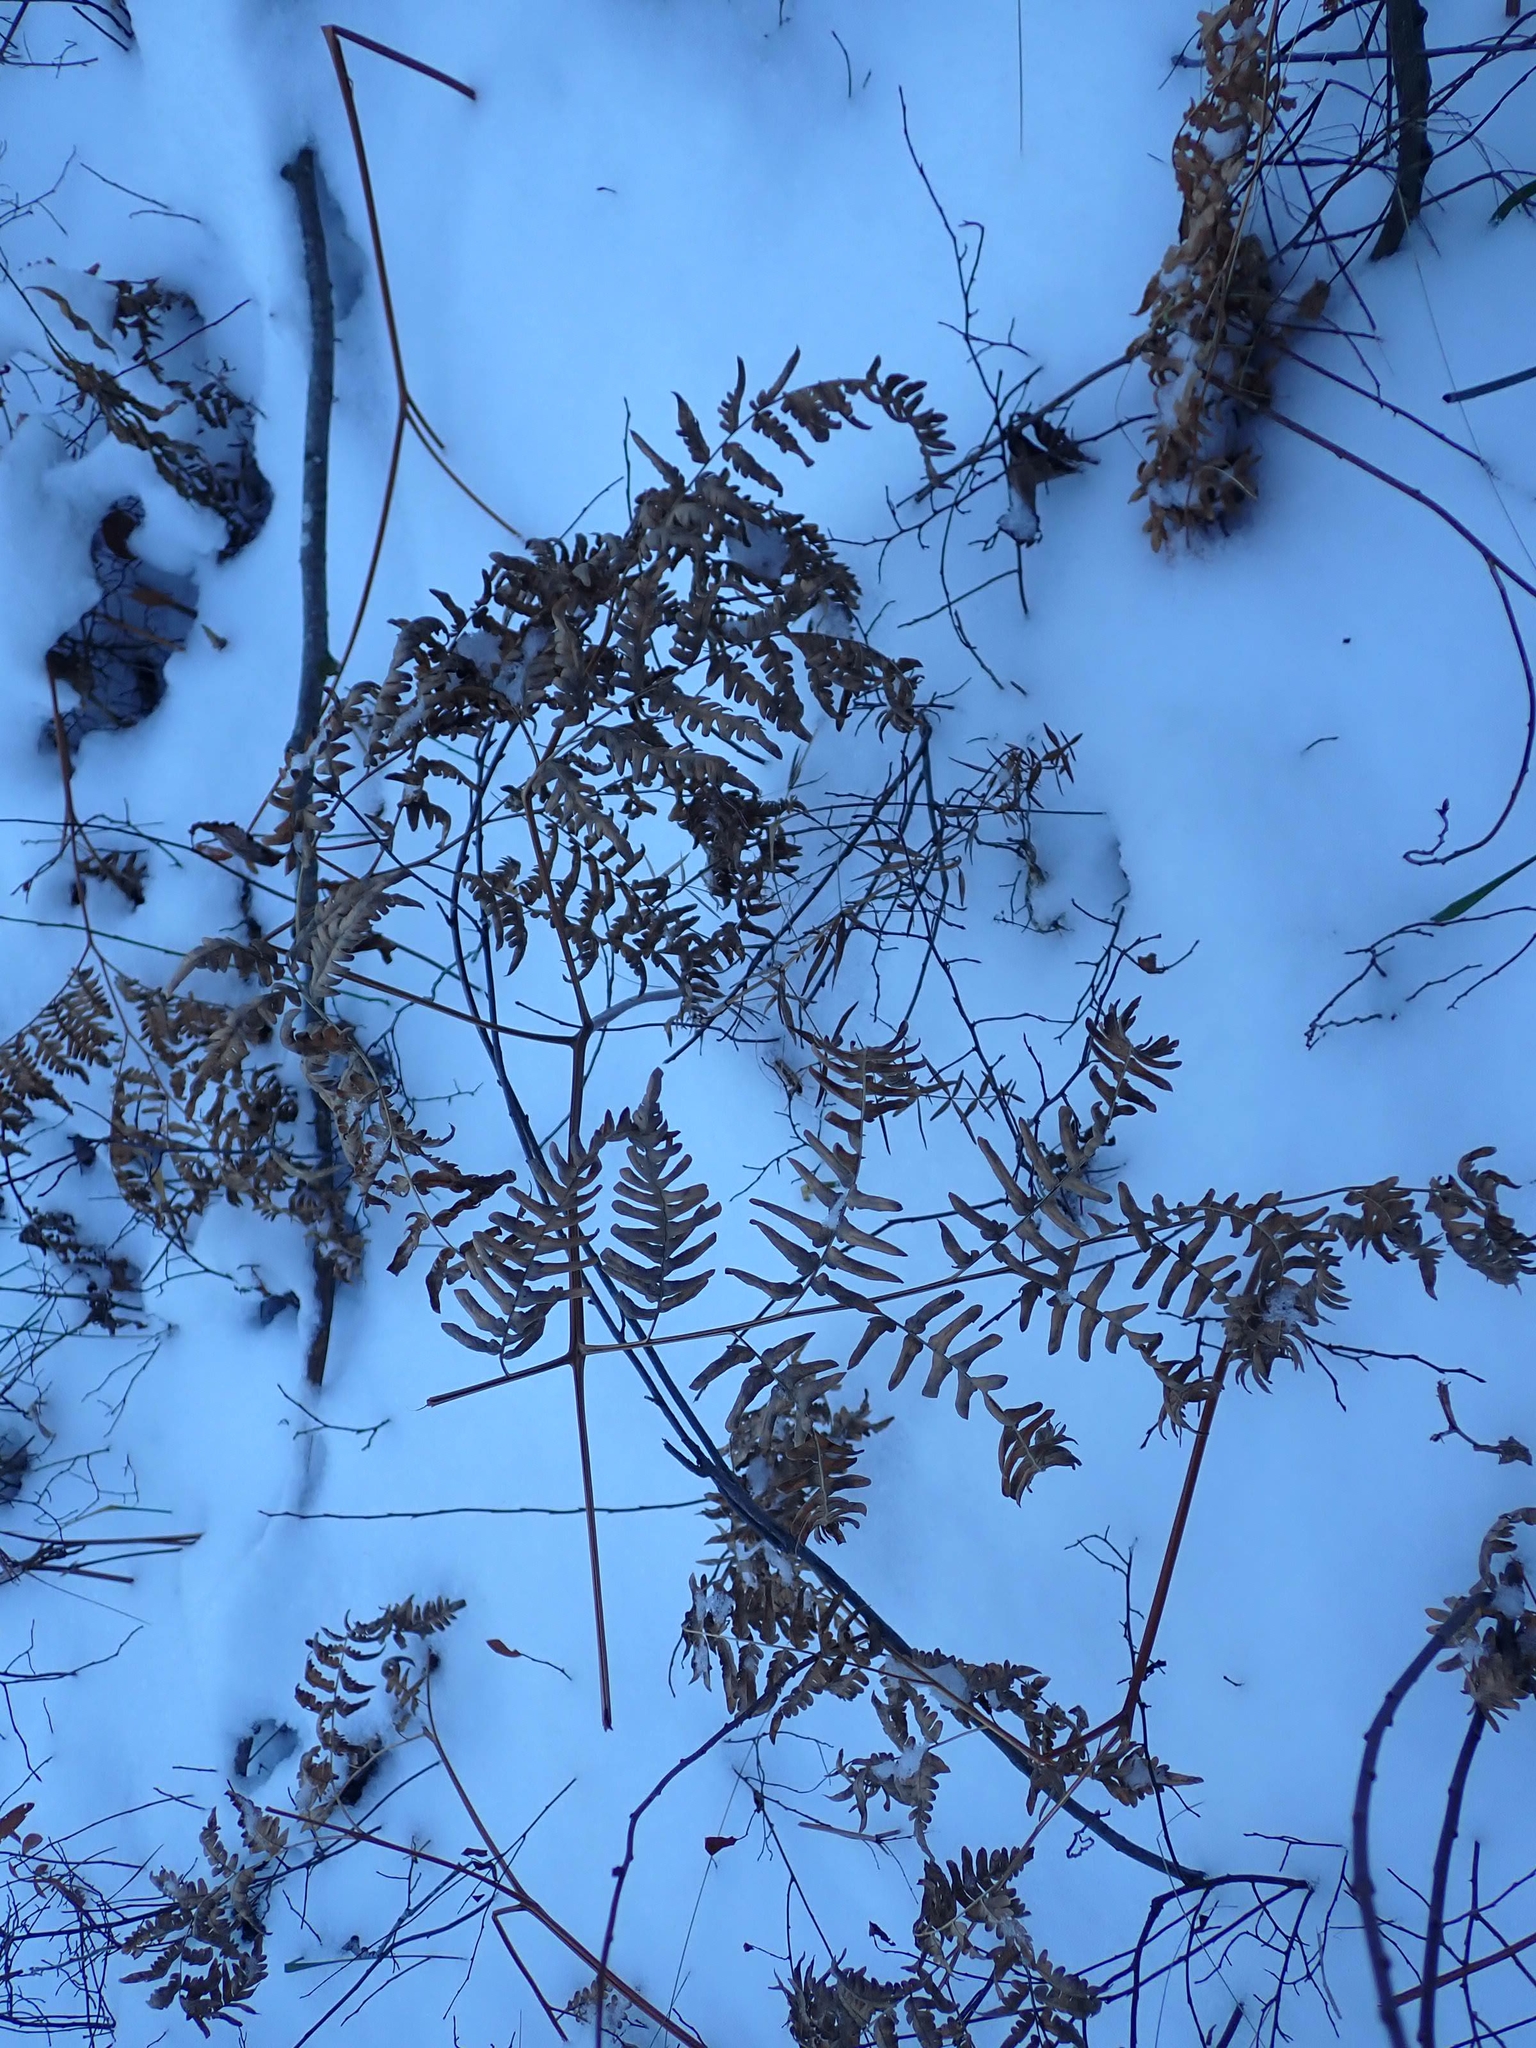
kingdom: Plantae
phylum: Tracheophyta
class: Polypodiopsida
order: Polypodiales
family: Dennstaedtiaceae
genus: Pteridium
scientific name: Pteridium aquilinum
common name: Bracken
